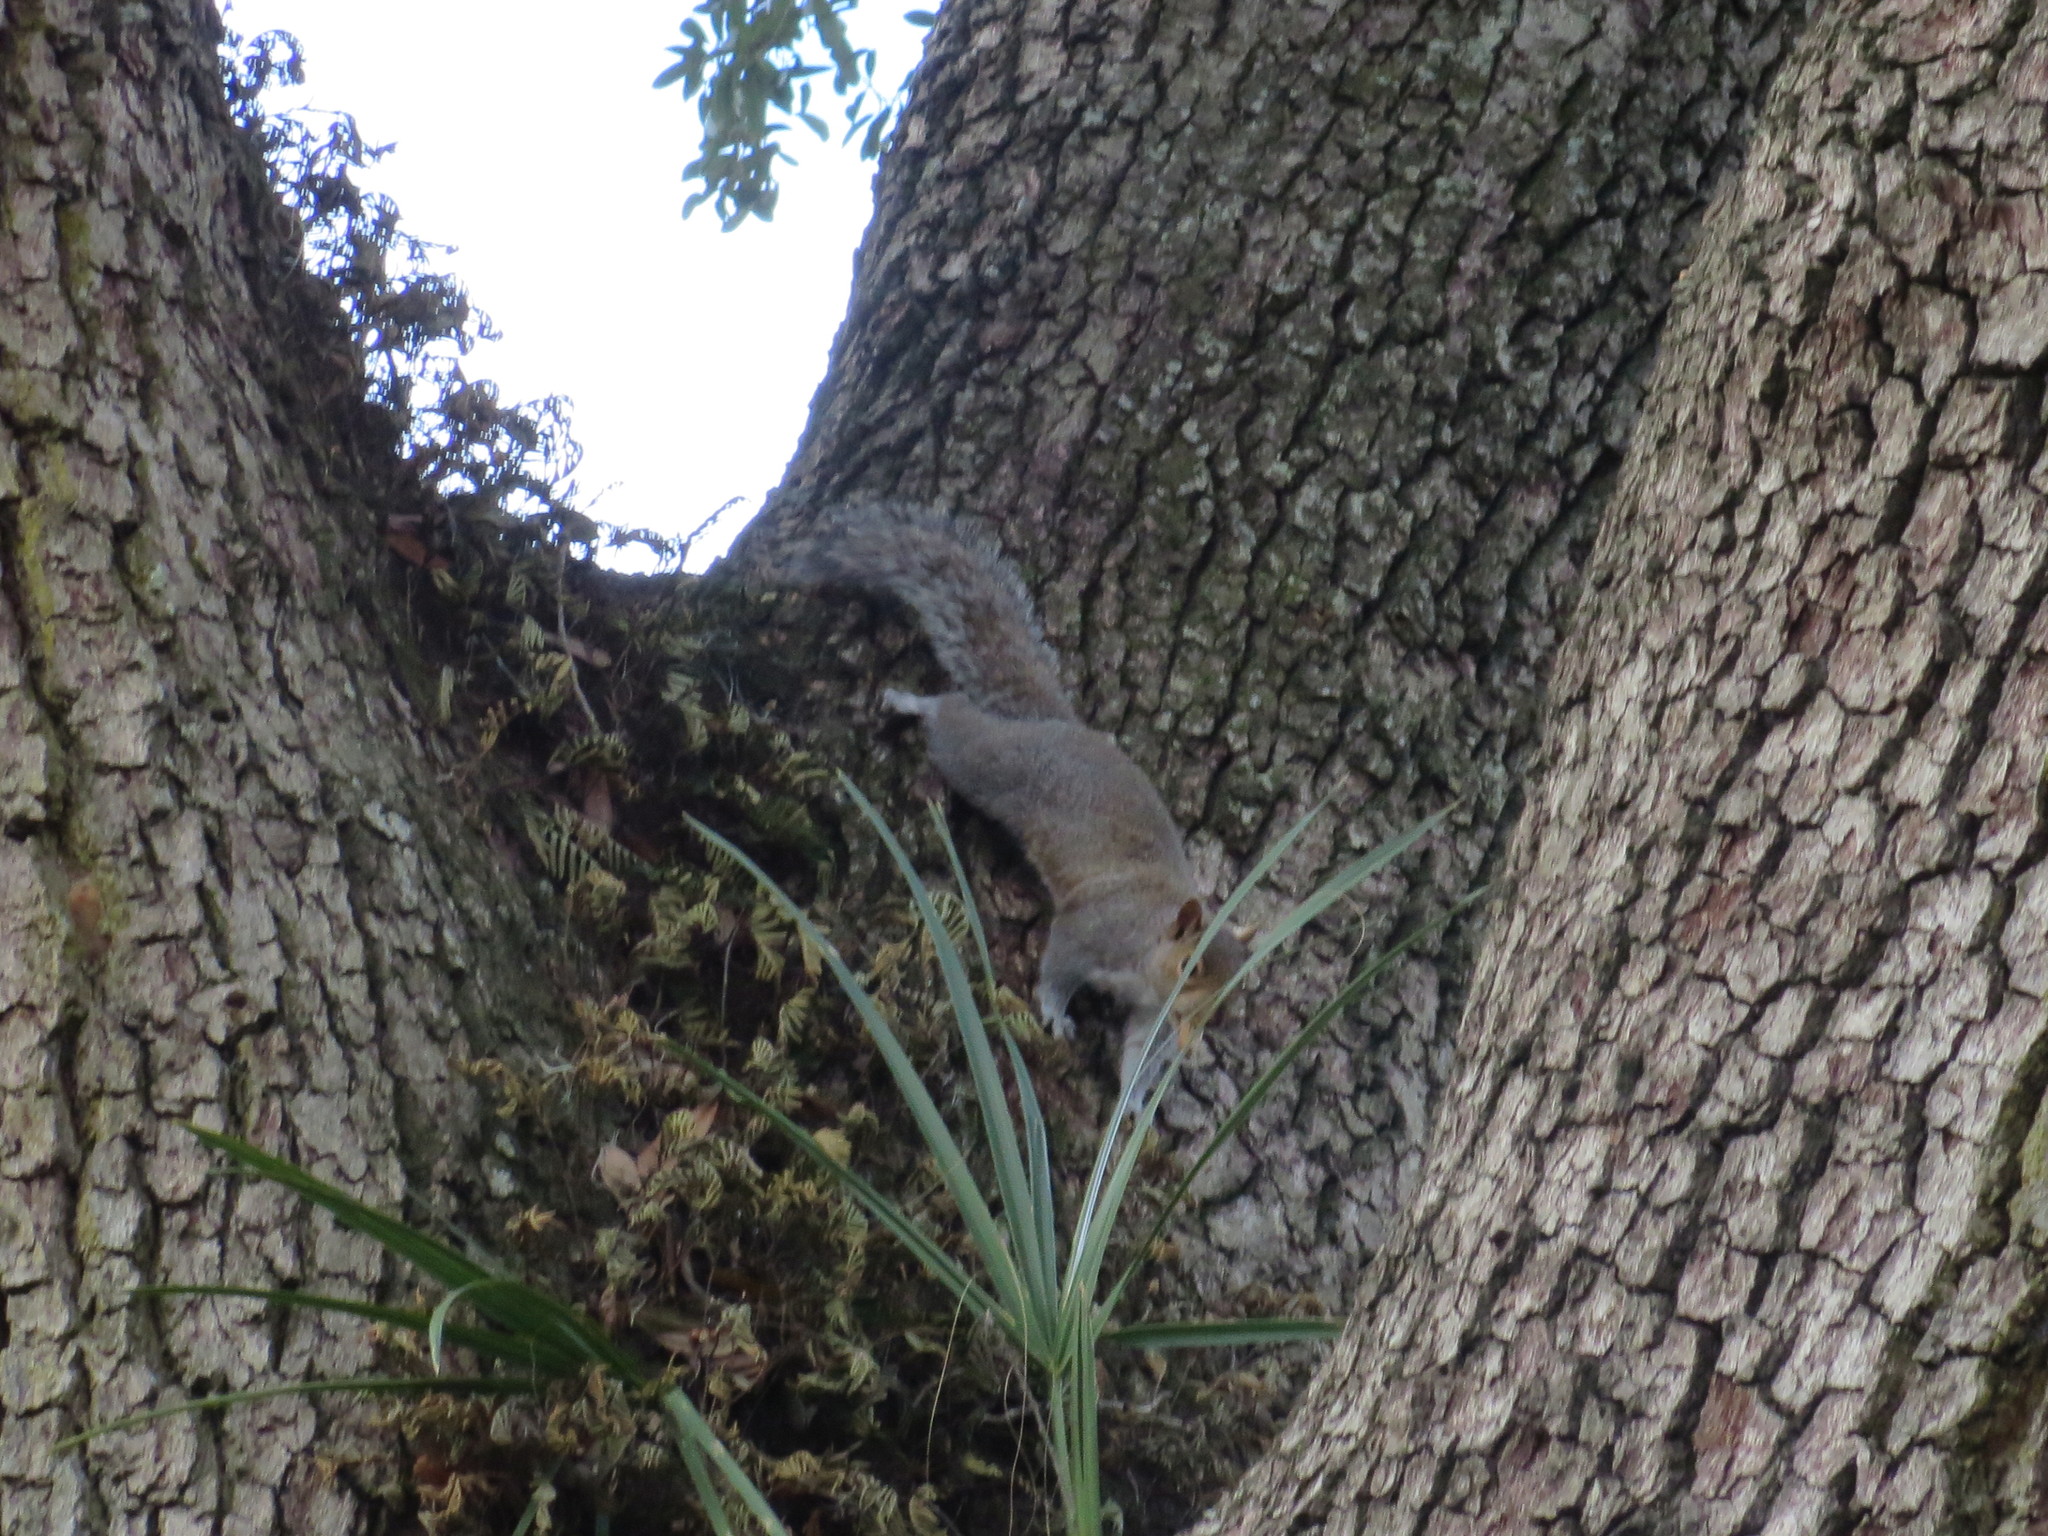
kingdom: Animalia
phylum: Chordata
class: Mammalia
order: Rodentia
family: Sciuridae
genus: Sciurus
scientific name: Sciurus carolinensis
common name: Eastern gray squirrel
